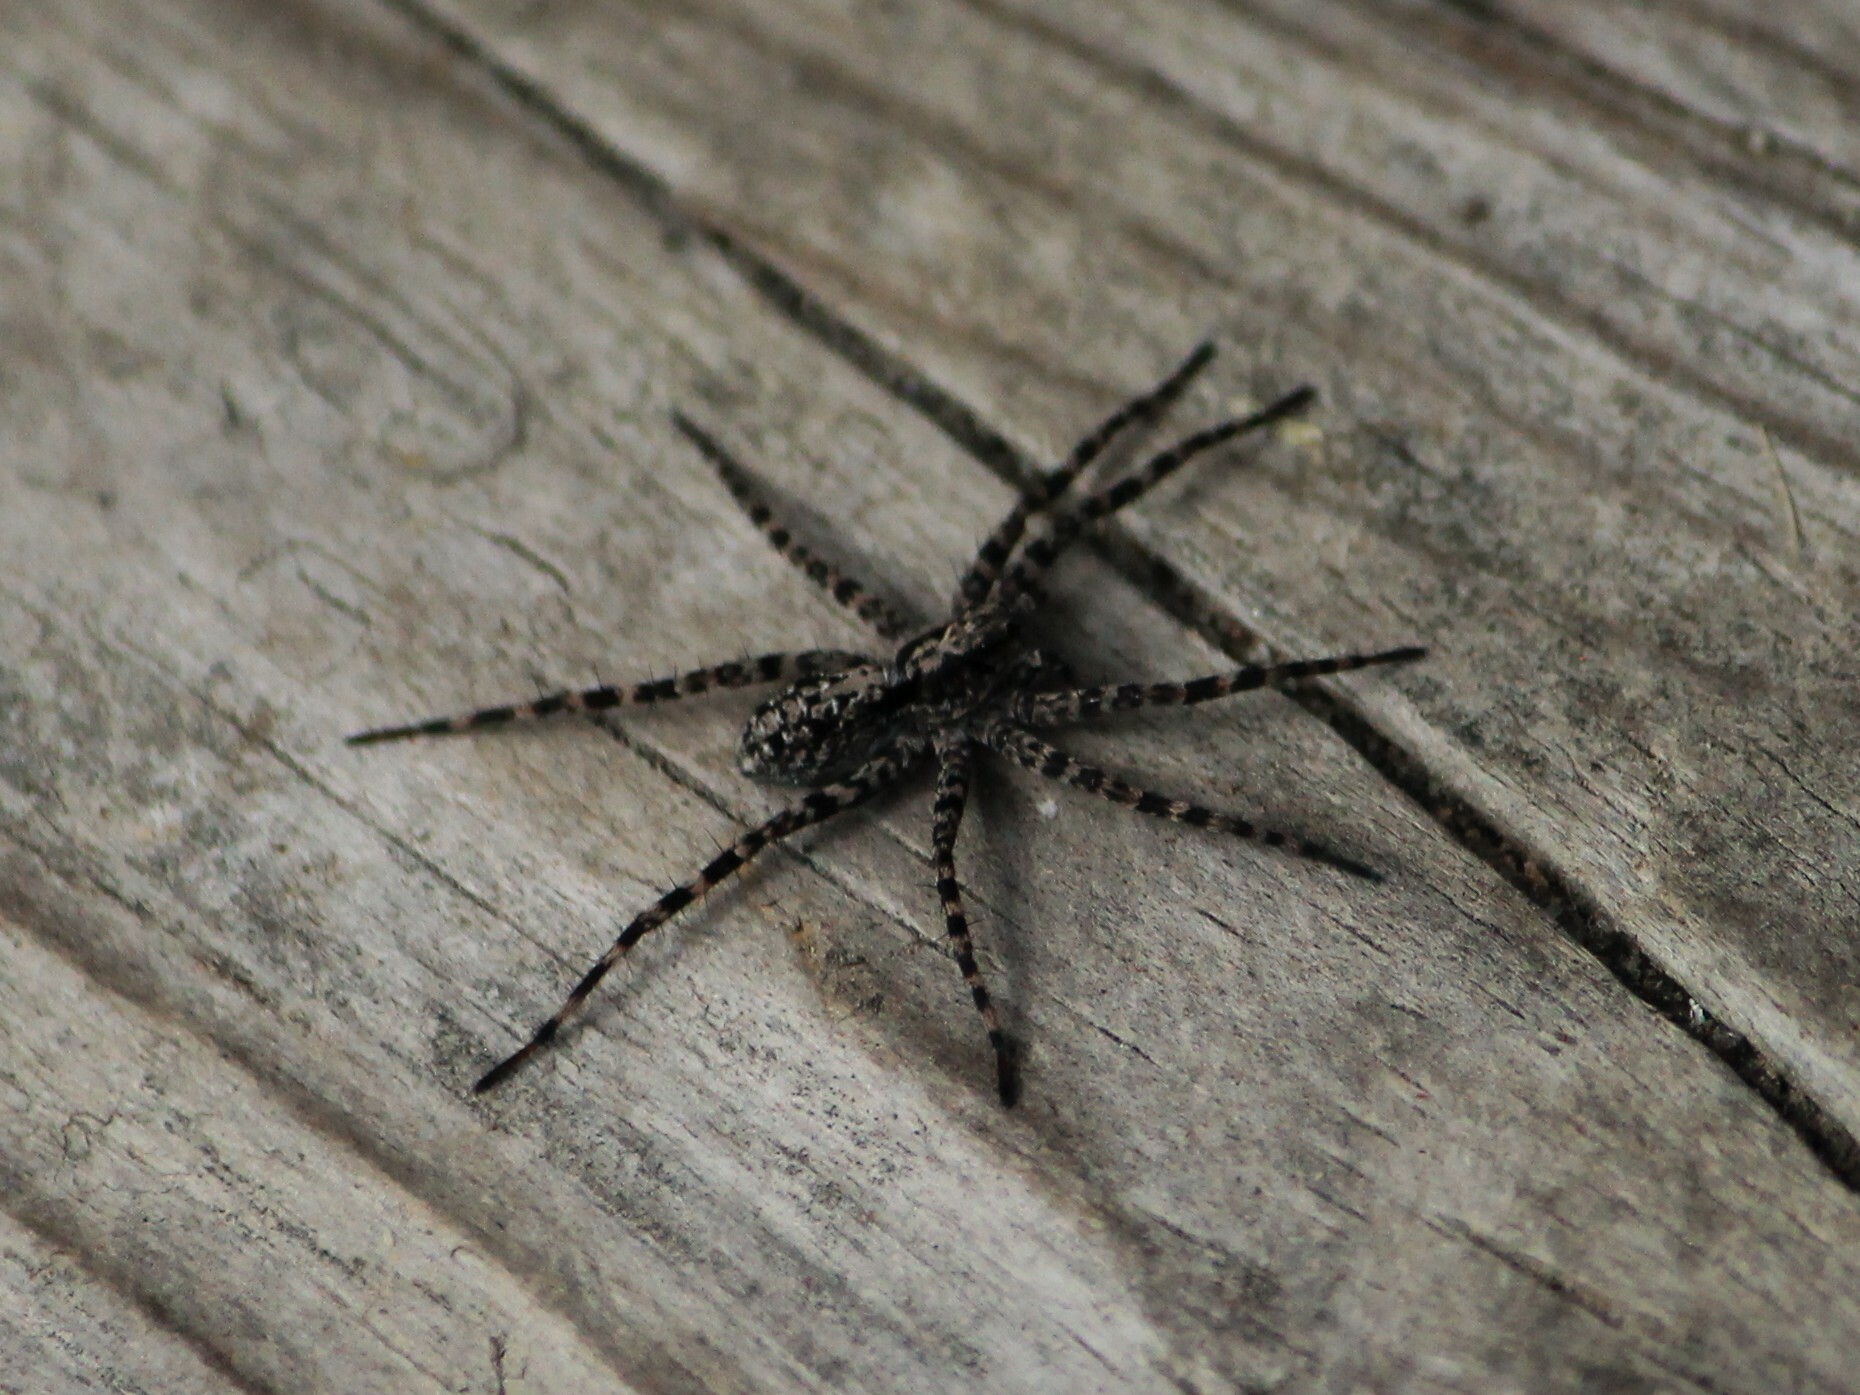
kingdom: Animalia
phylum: Arthropoda
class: Arachnida
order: Araneae
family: Lycosidae
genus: Acantholycosa
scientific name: Acantholycosa lignaria
